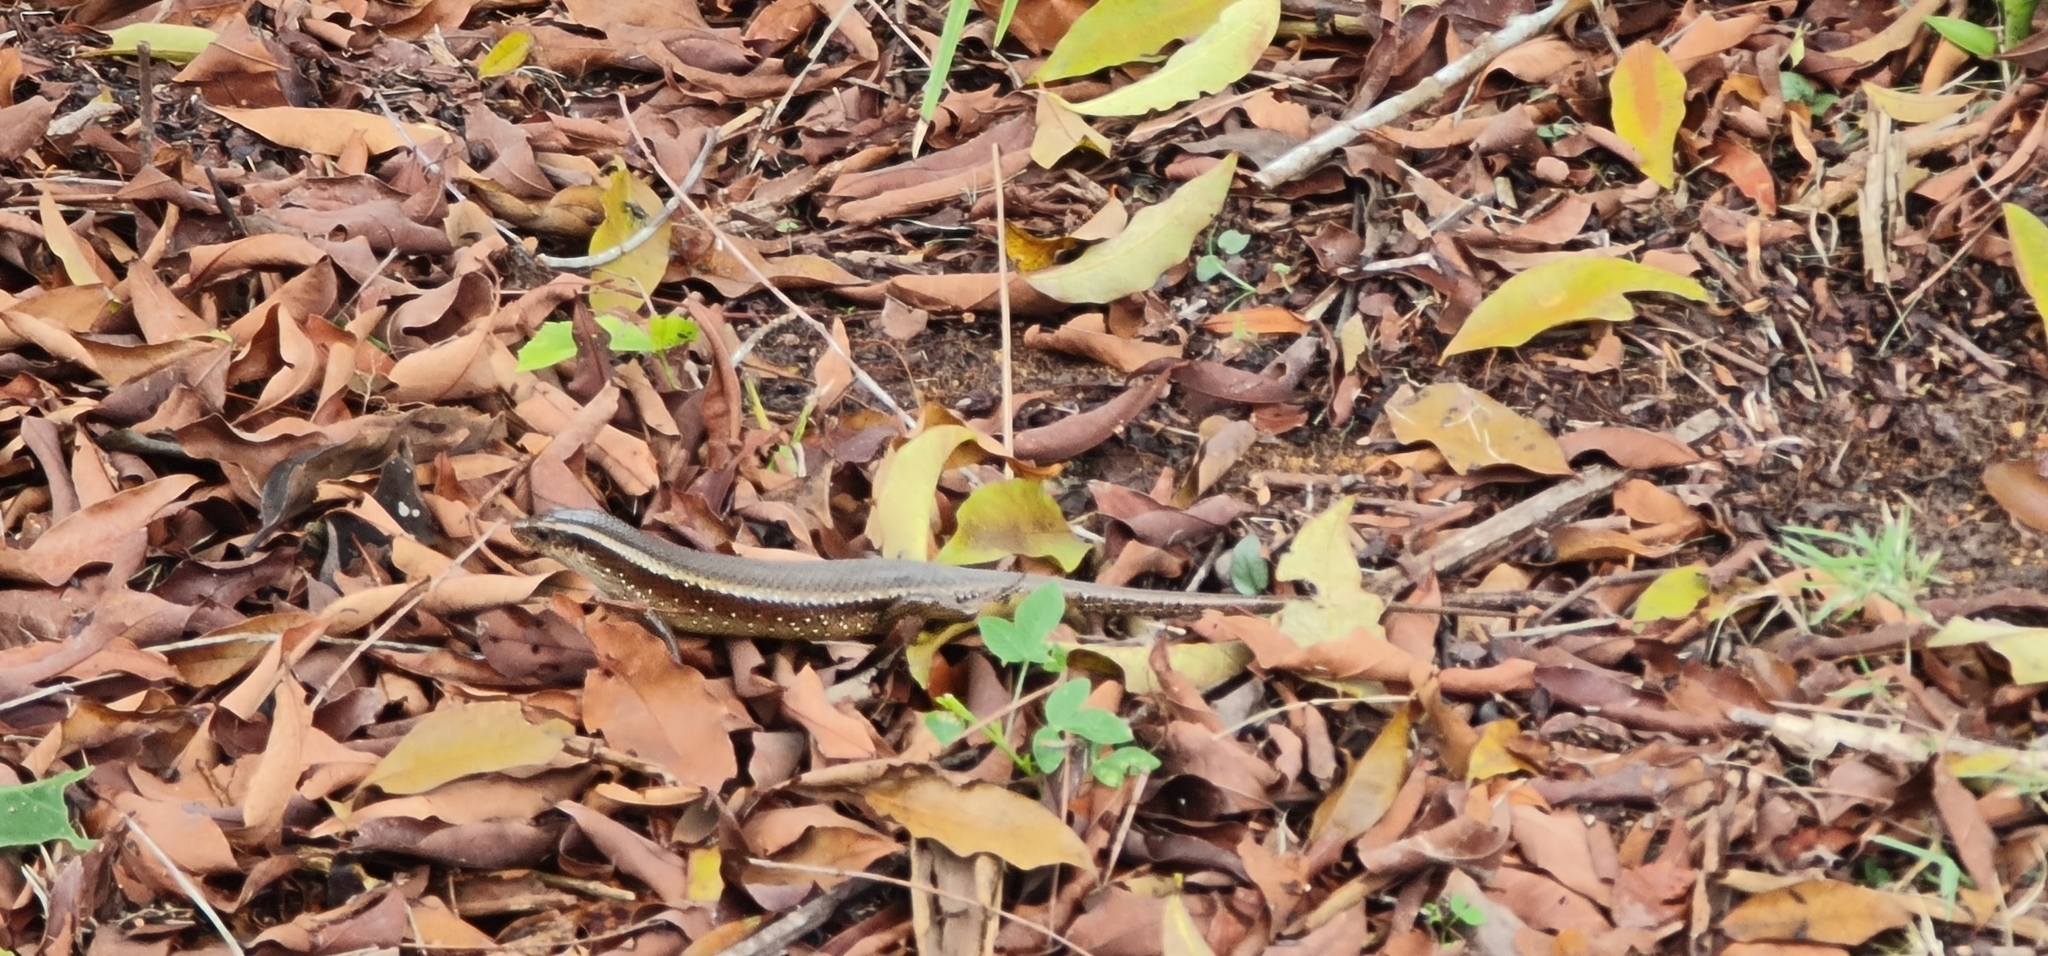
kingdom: Animalia
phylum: Chordata
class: Squamata
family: Scincidae
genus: Eutropis
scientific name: Eutropis multifasciata
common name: Common mabuya
